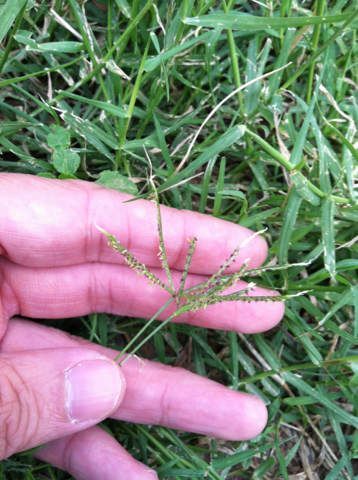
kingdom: Plantae
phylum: Tracheophyta
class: Liliopsida
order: Poales
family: Poaceae
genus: Cynodon
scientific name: Cynodon dactylon
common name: Bermuda grass
